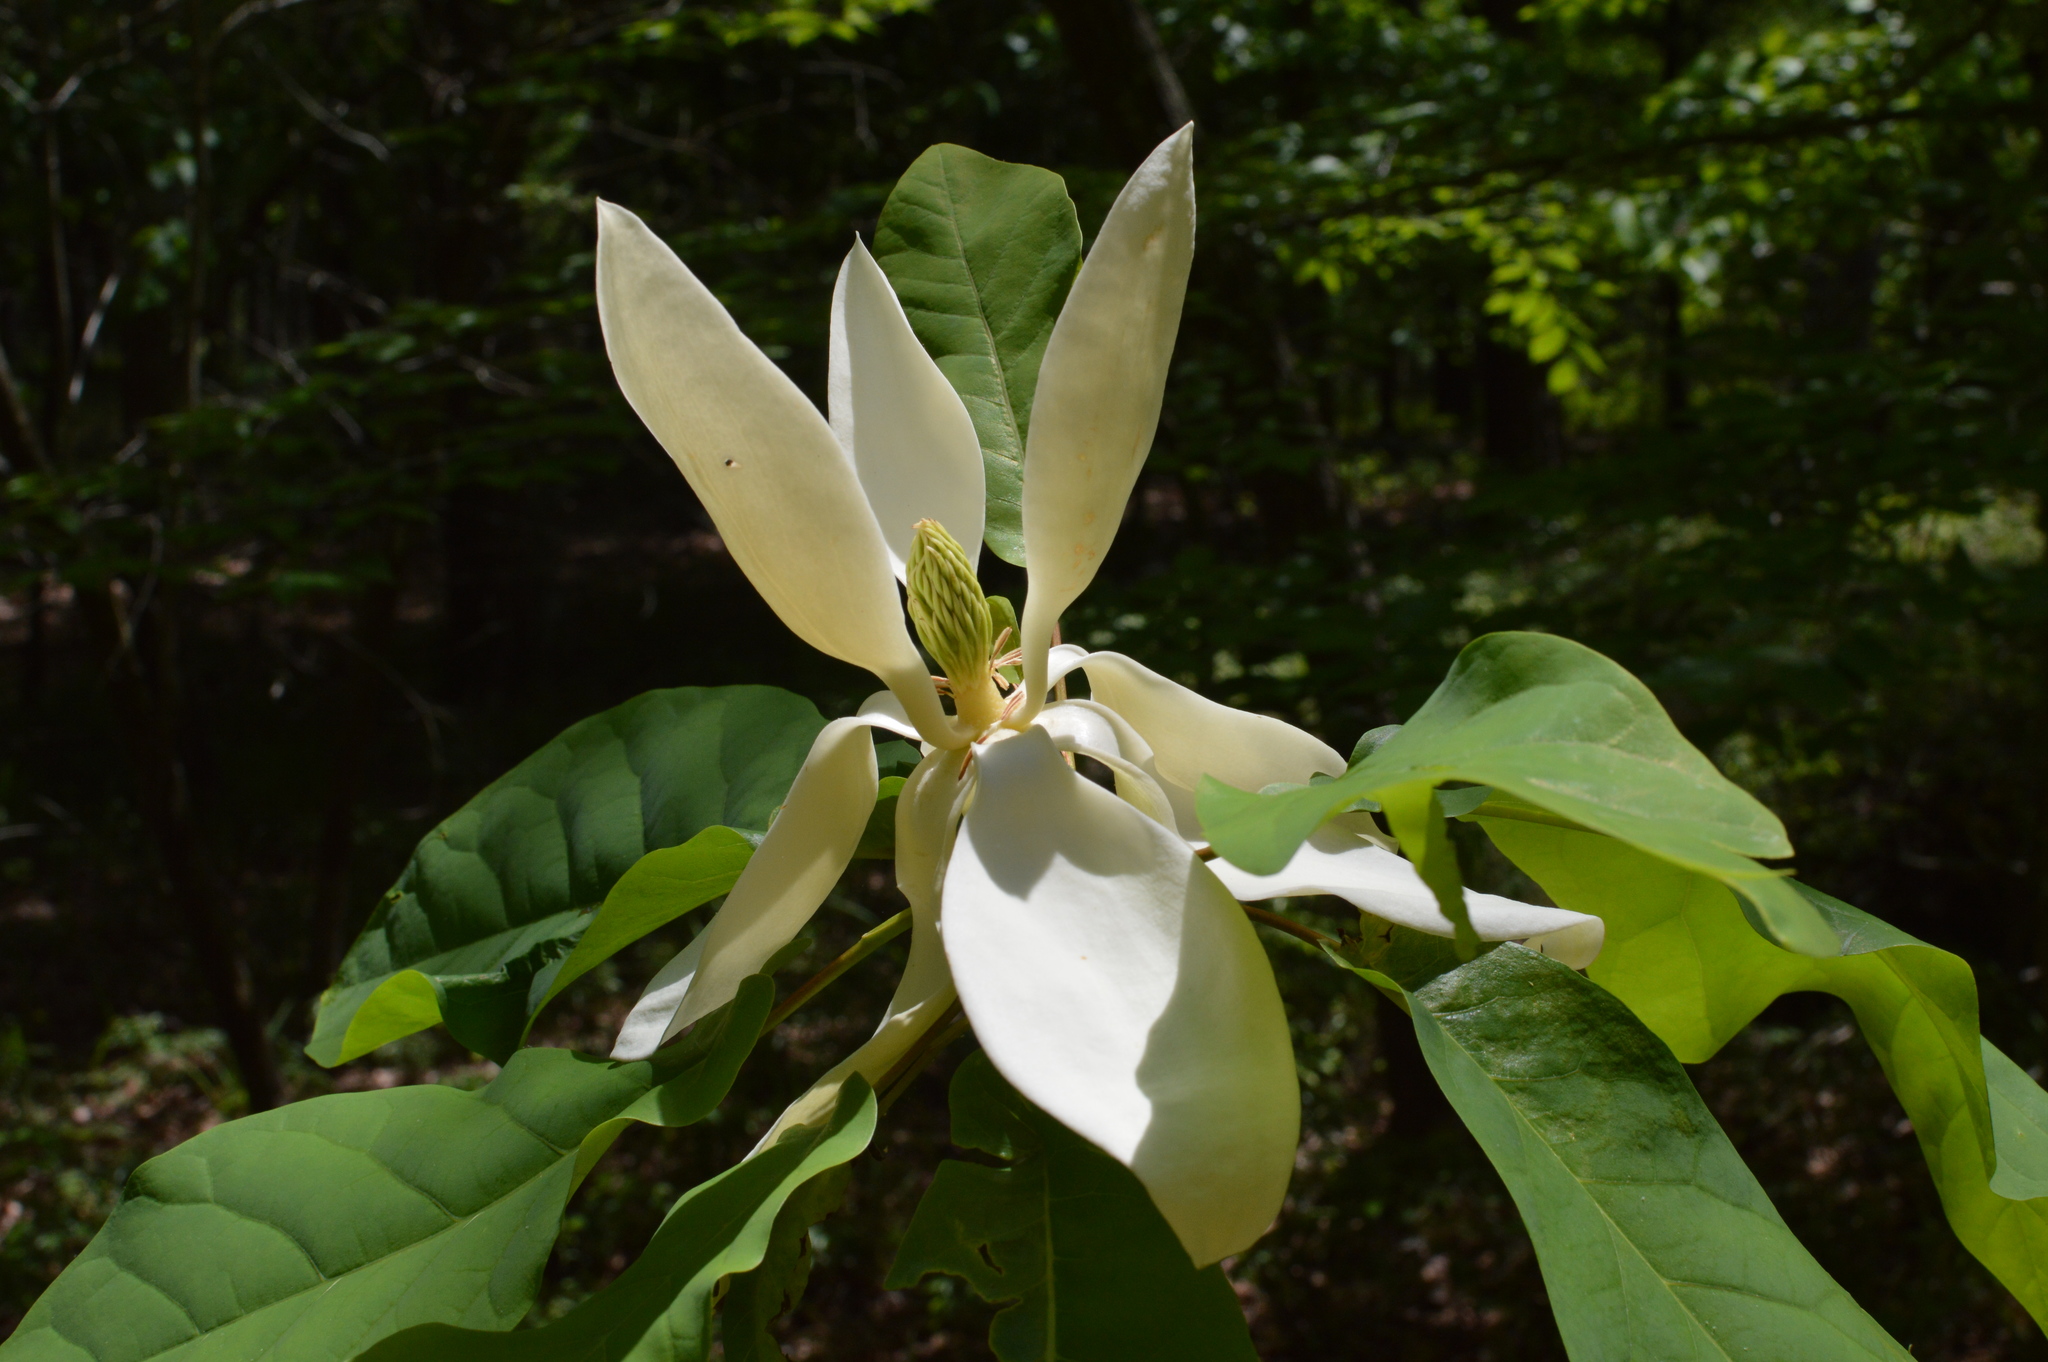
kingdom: Plantae
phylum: Tracheophyta
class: Magnoliopsida
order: Magnoliales
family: Magnoliaceae
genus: Magnolia
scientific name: Magnolia fraseri
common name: Fraser's magnolia
